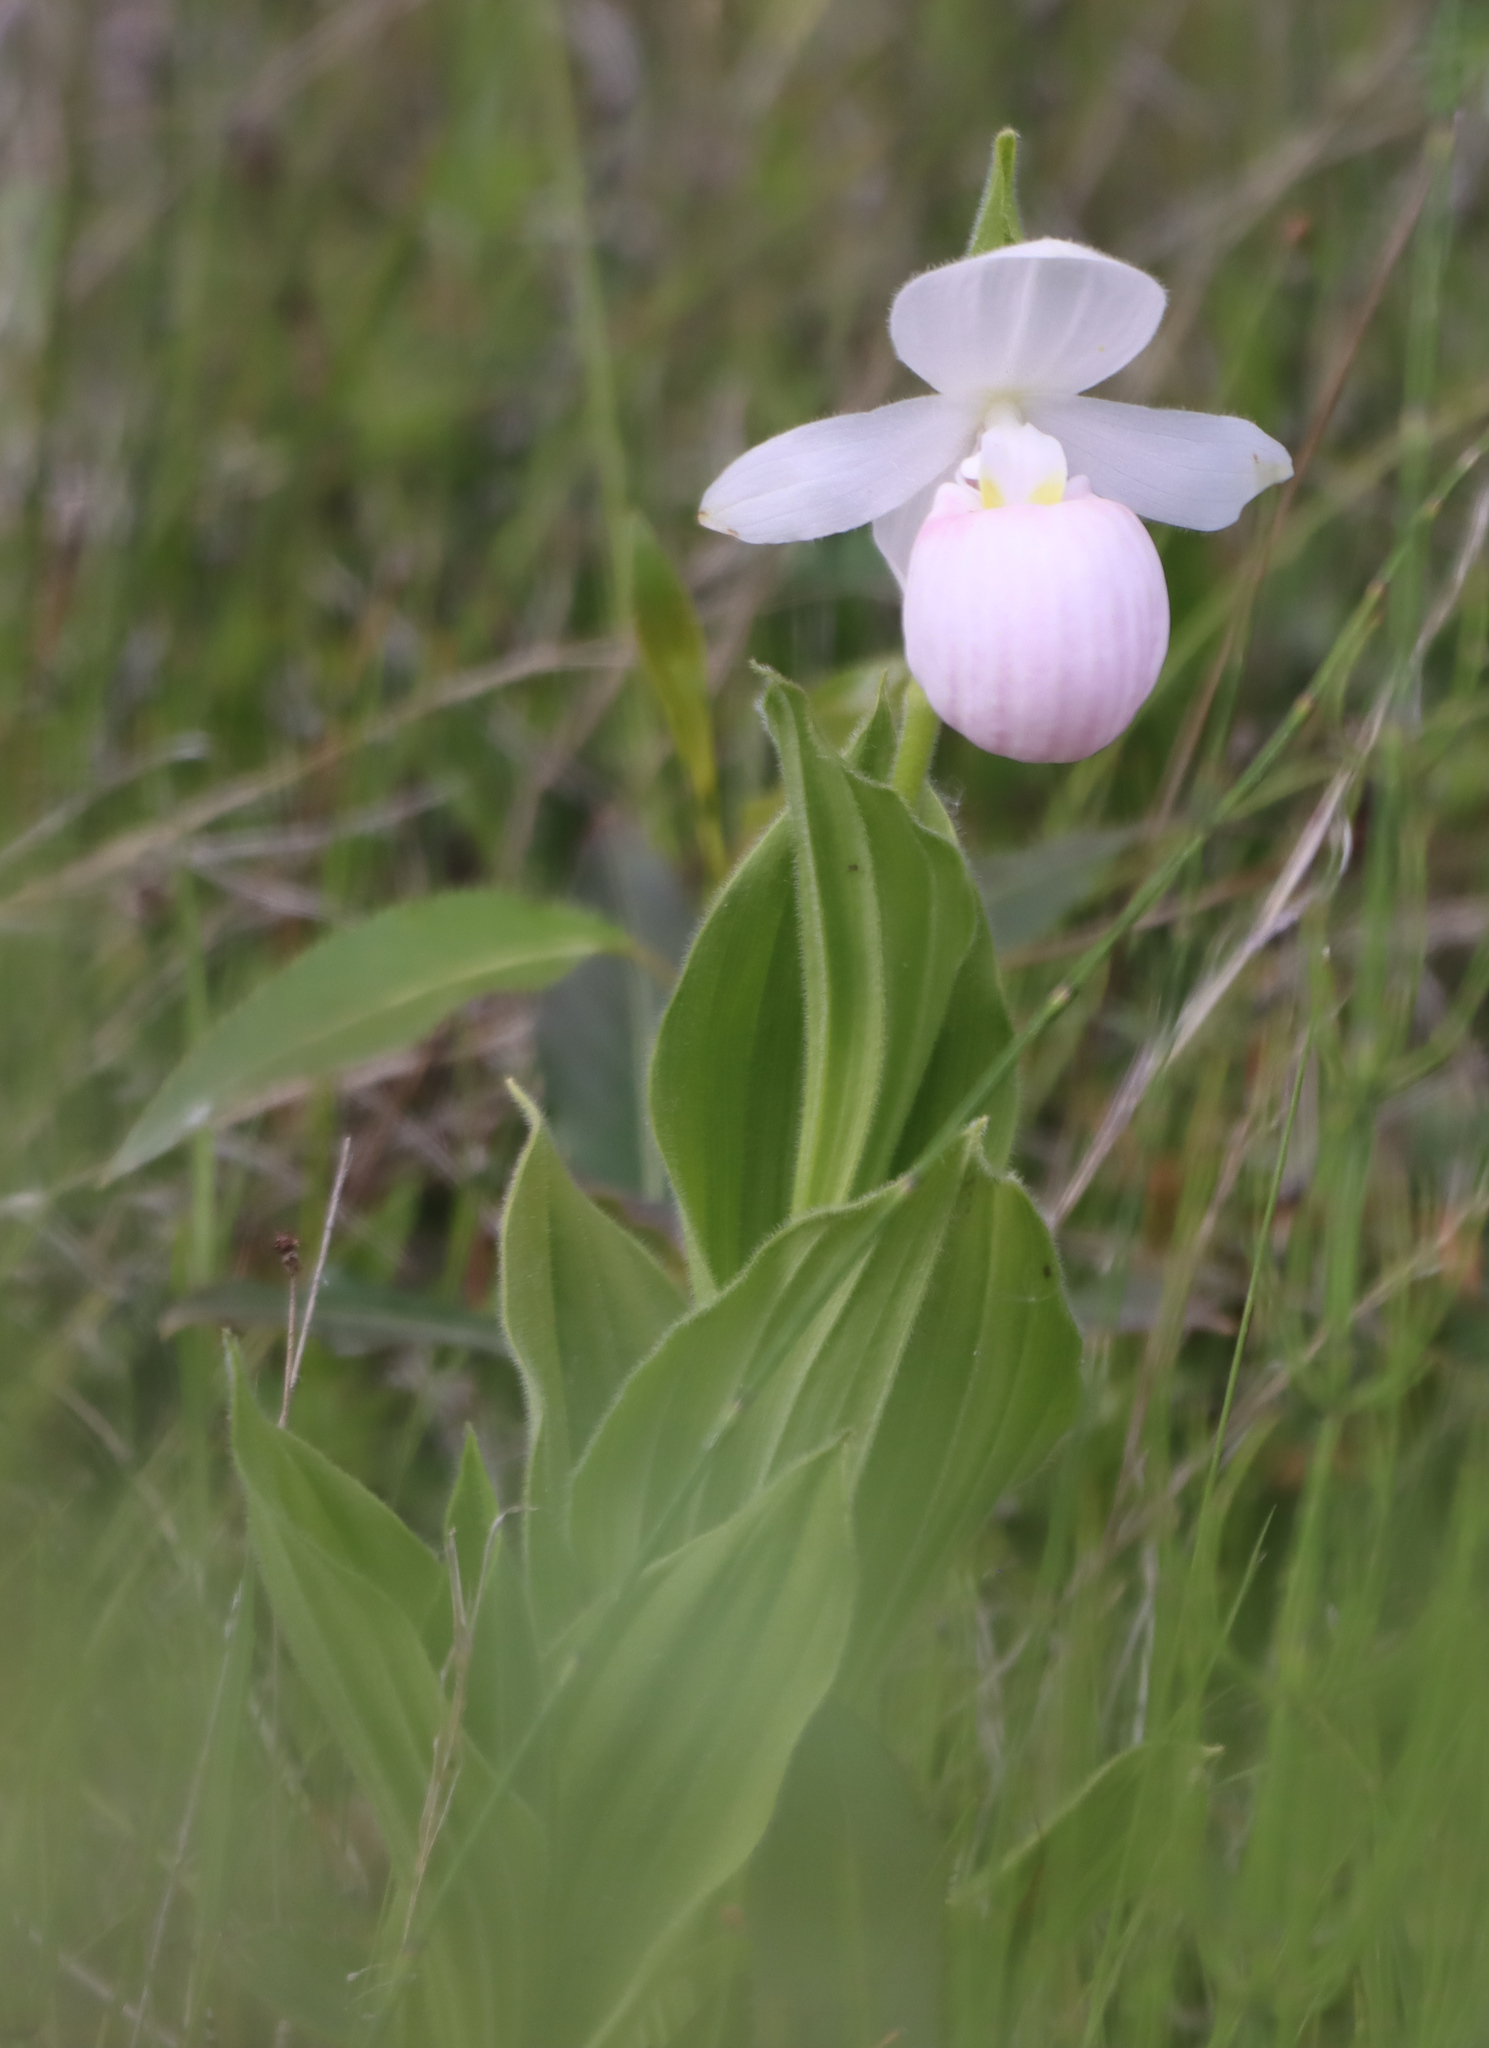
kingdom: Plantae
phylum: Tracheophyta
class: Liliopsida
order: Asparagales
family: Orchidaceae
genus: Cypripedium
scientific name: Cypripedium reginae
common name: Queen lady's-slipper
